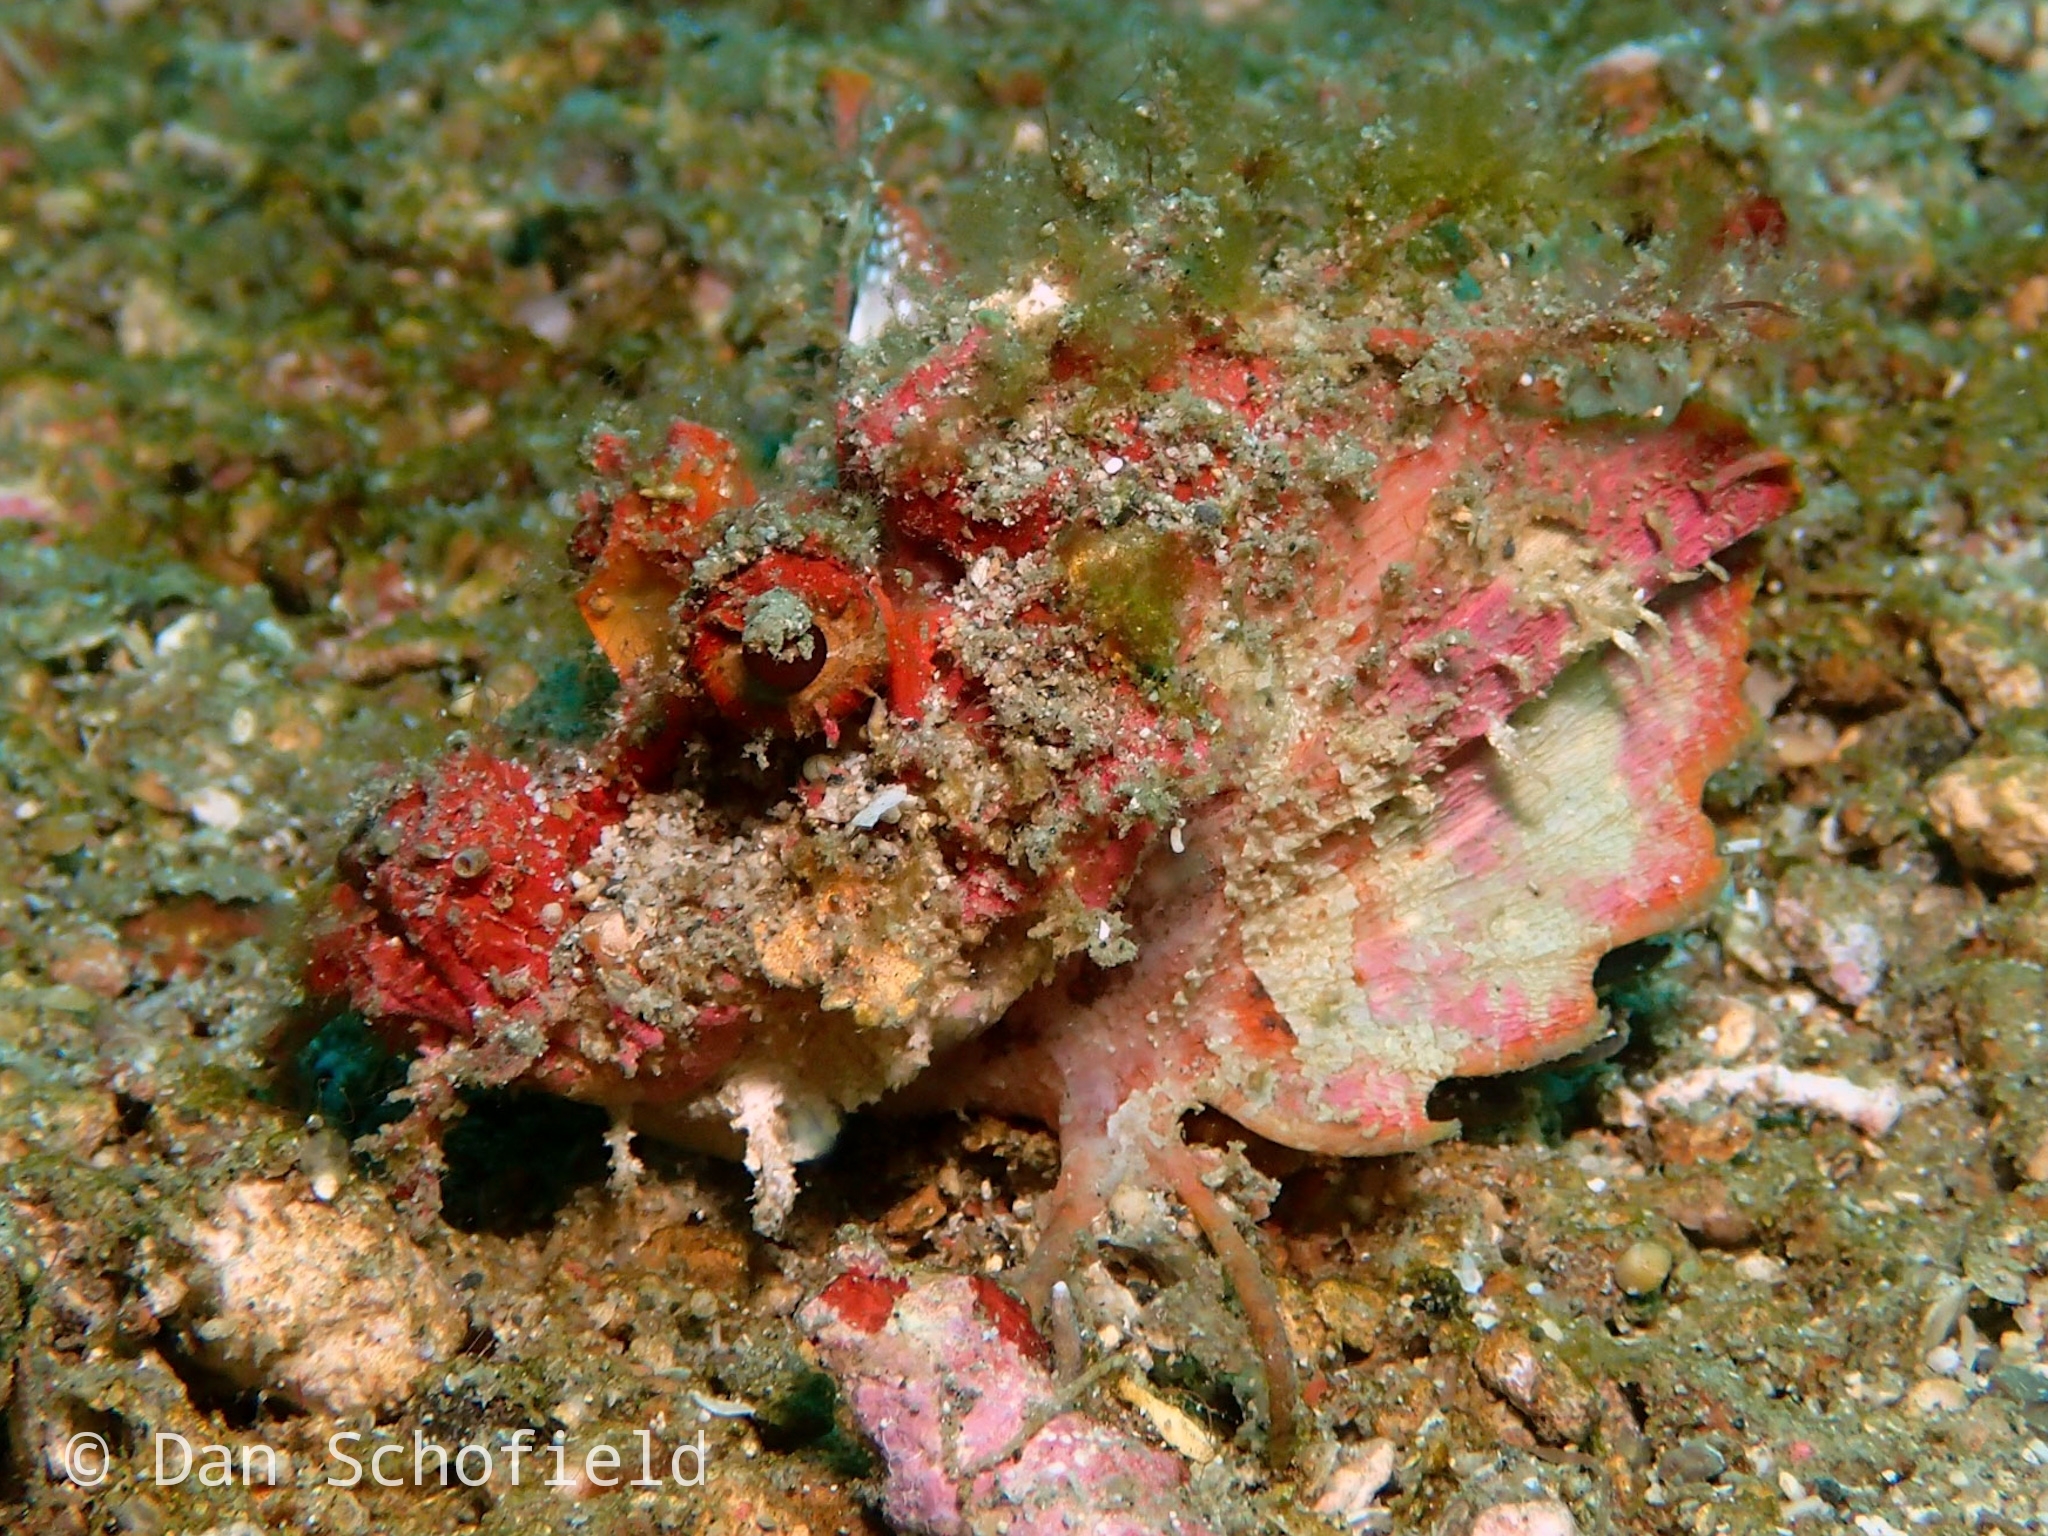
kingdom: Animalia
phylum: Chordata
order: Scorpaeniformes
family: Synanceiidae
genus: Inimicus
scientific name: Inimicus didactylus
